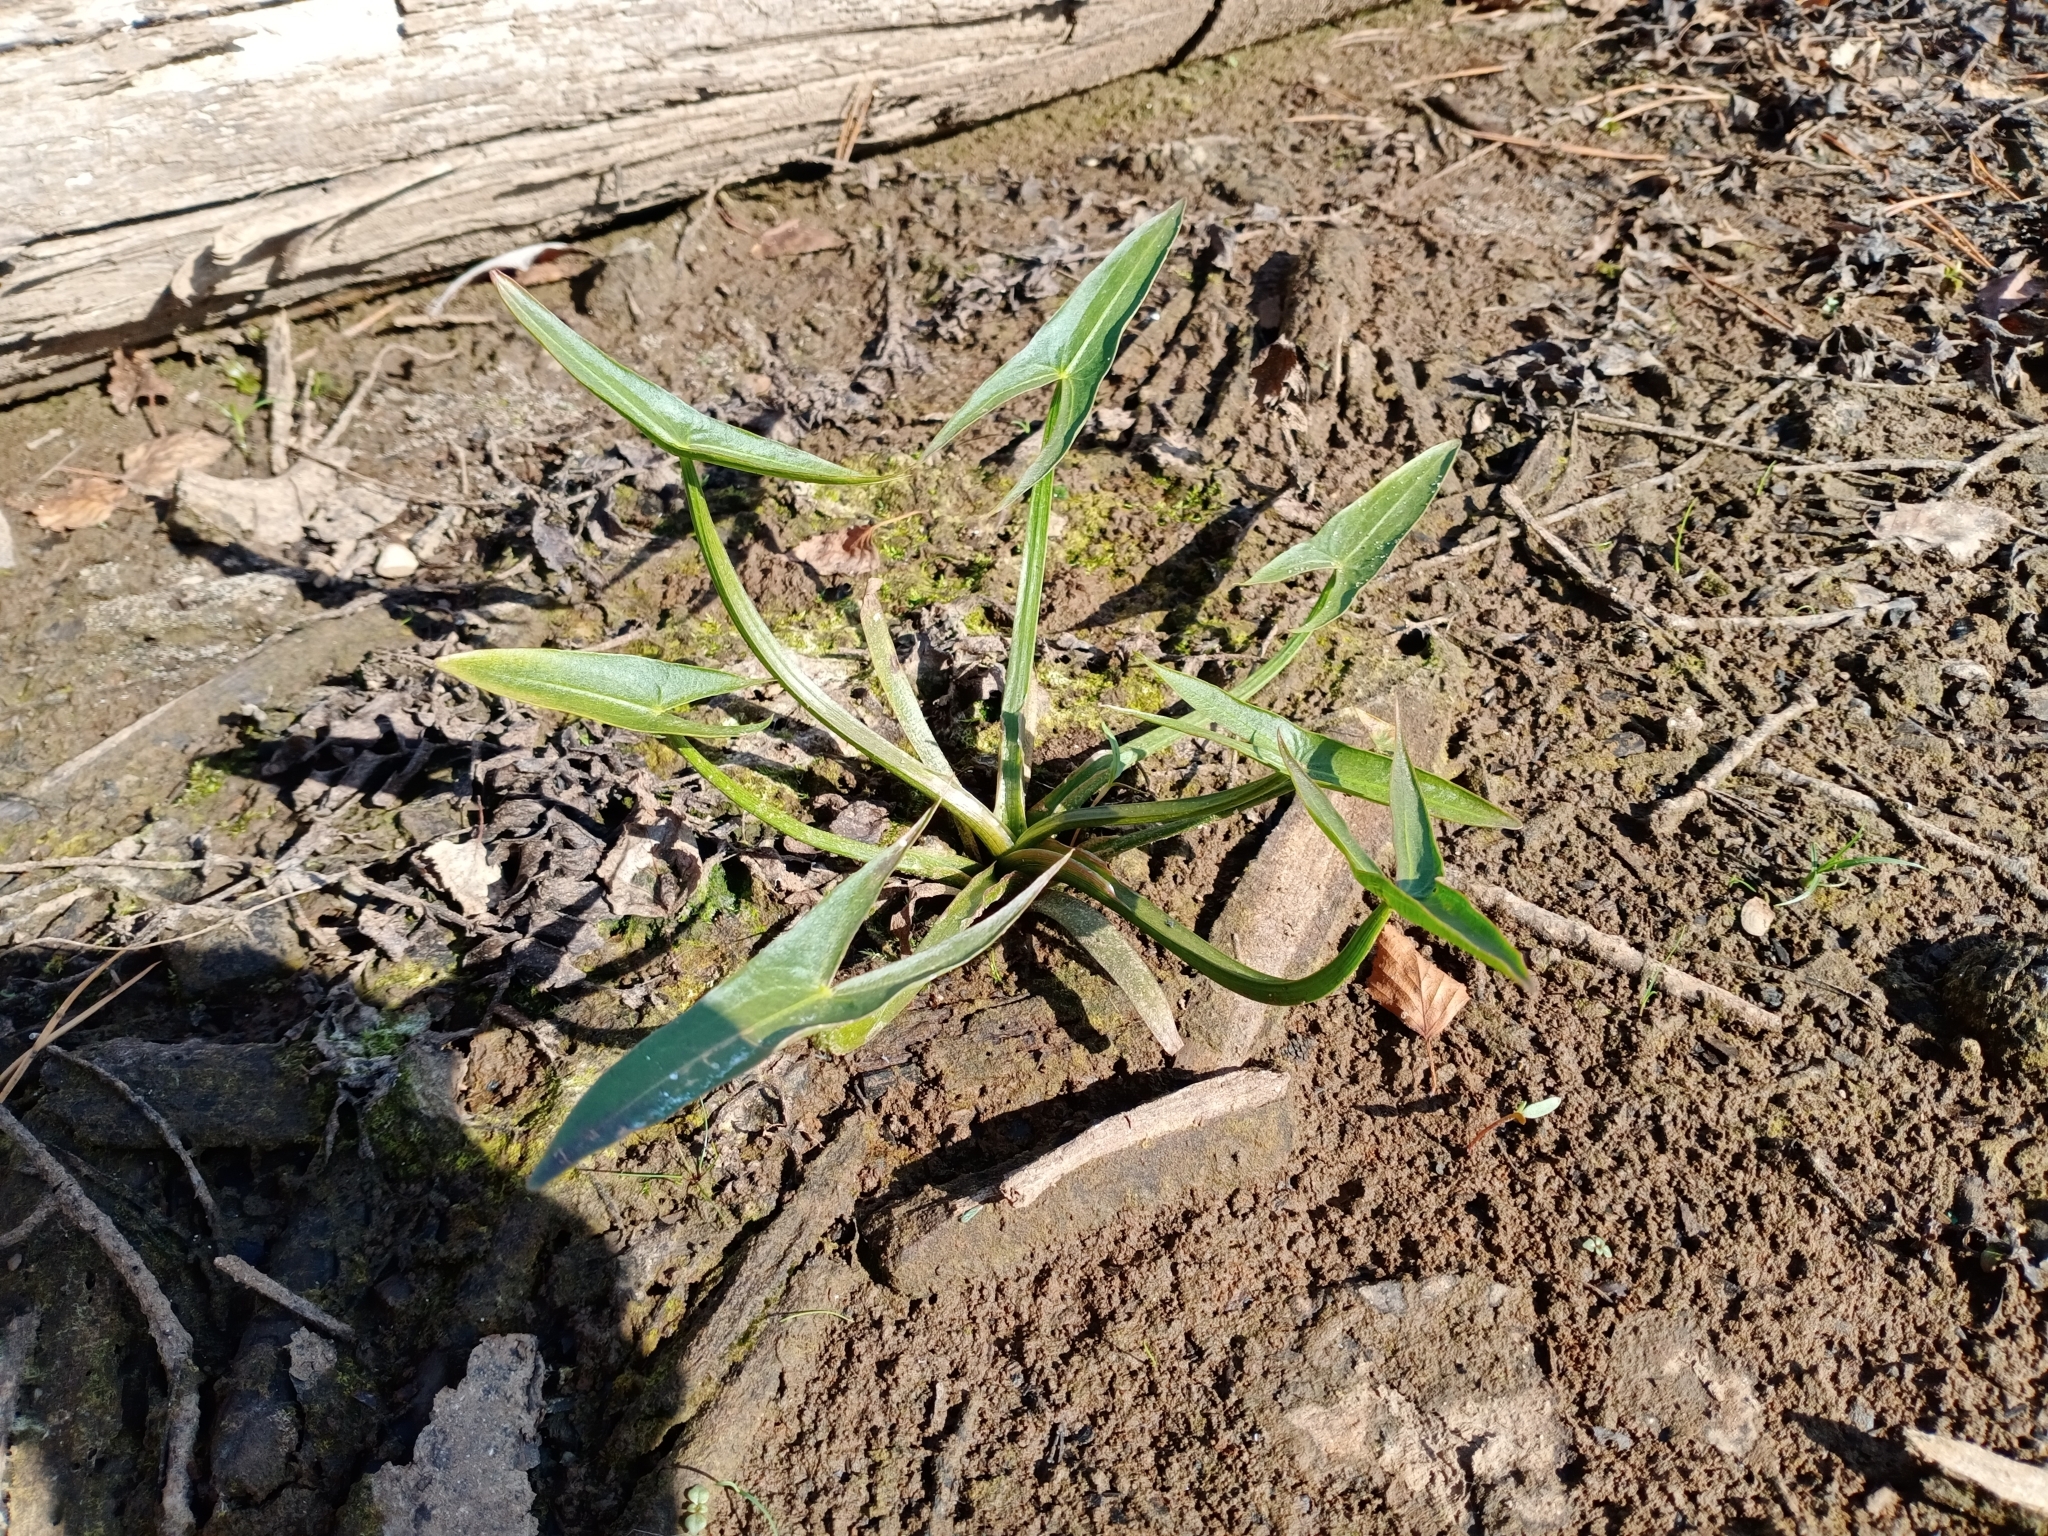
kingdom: Plantae
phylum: Tracheophyta
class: Liliopsida
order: Alismatales
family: Alismataceae
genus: Sagittaria
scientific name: Sagittaria sagittifolia
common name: Arrowhead
